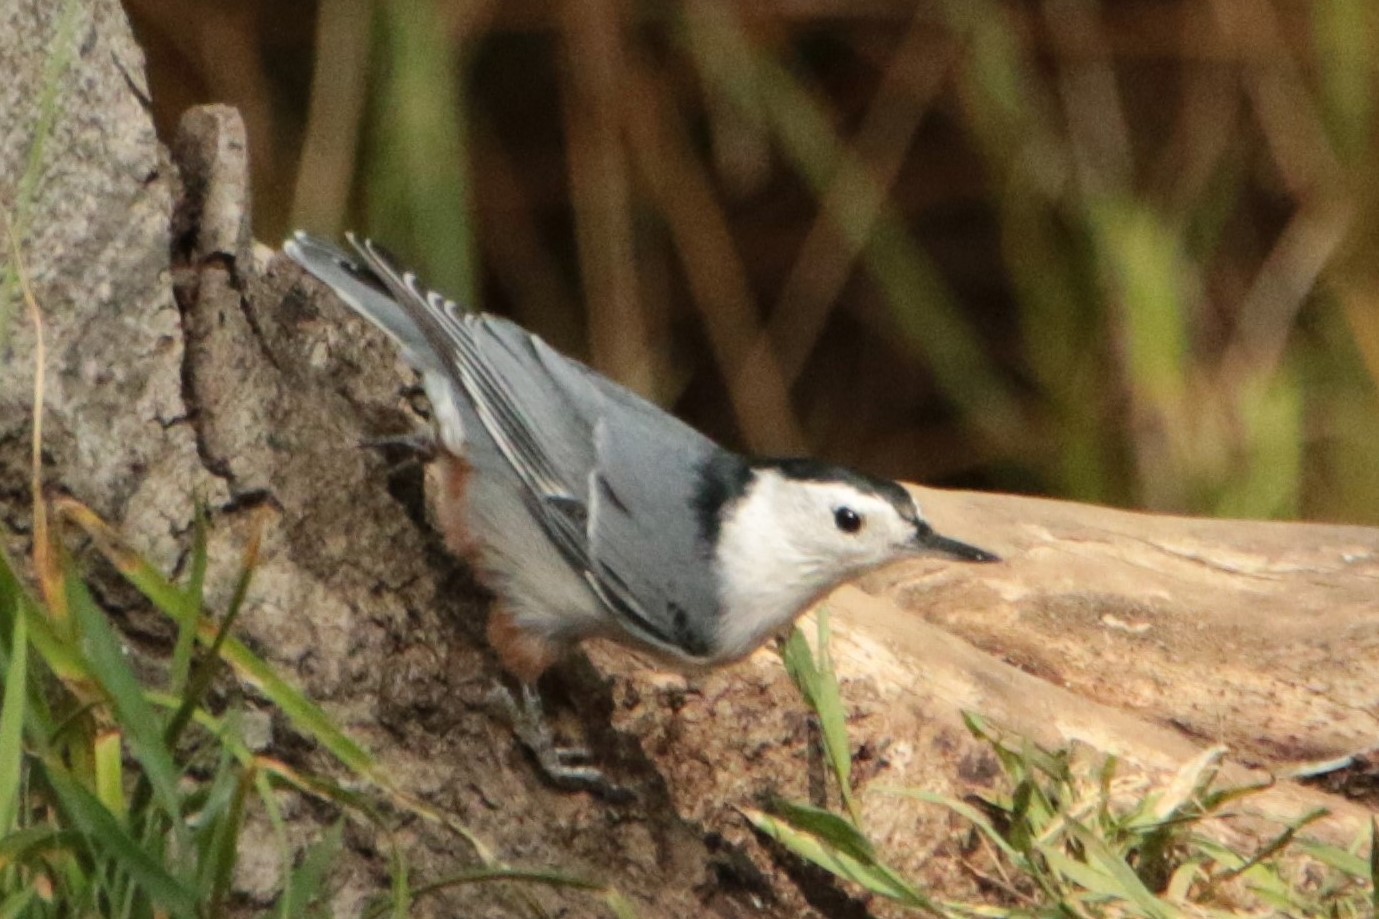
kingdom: Animalia
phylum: Chordata
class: Aves
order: Passeriformes
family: Sittidae
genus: Sitta
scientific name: Sitta carolinensis
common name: White-breasted nuthatch
